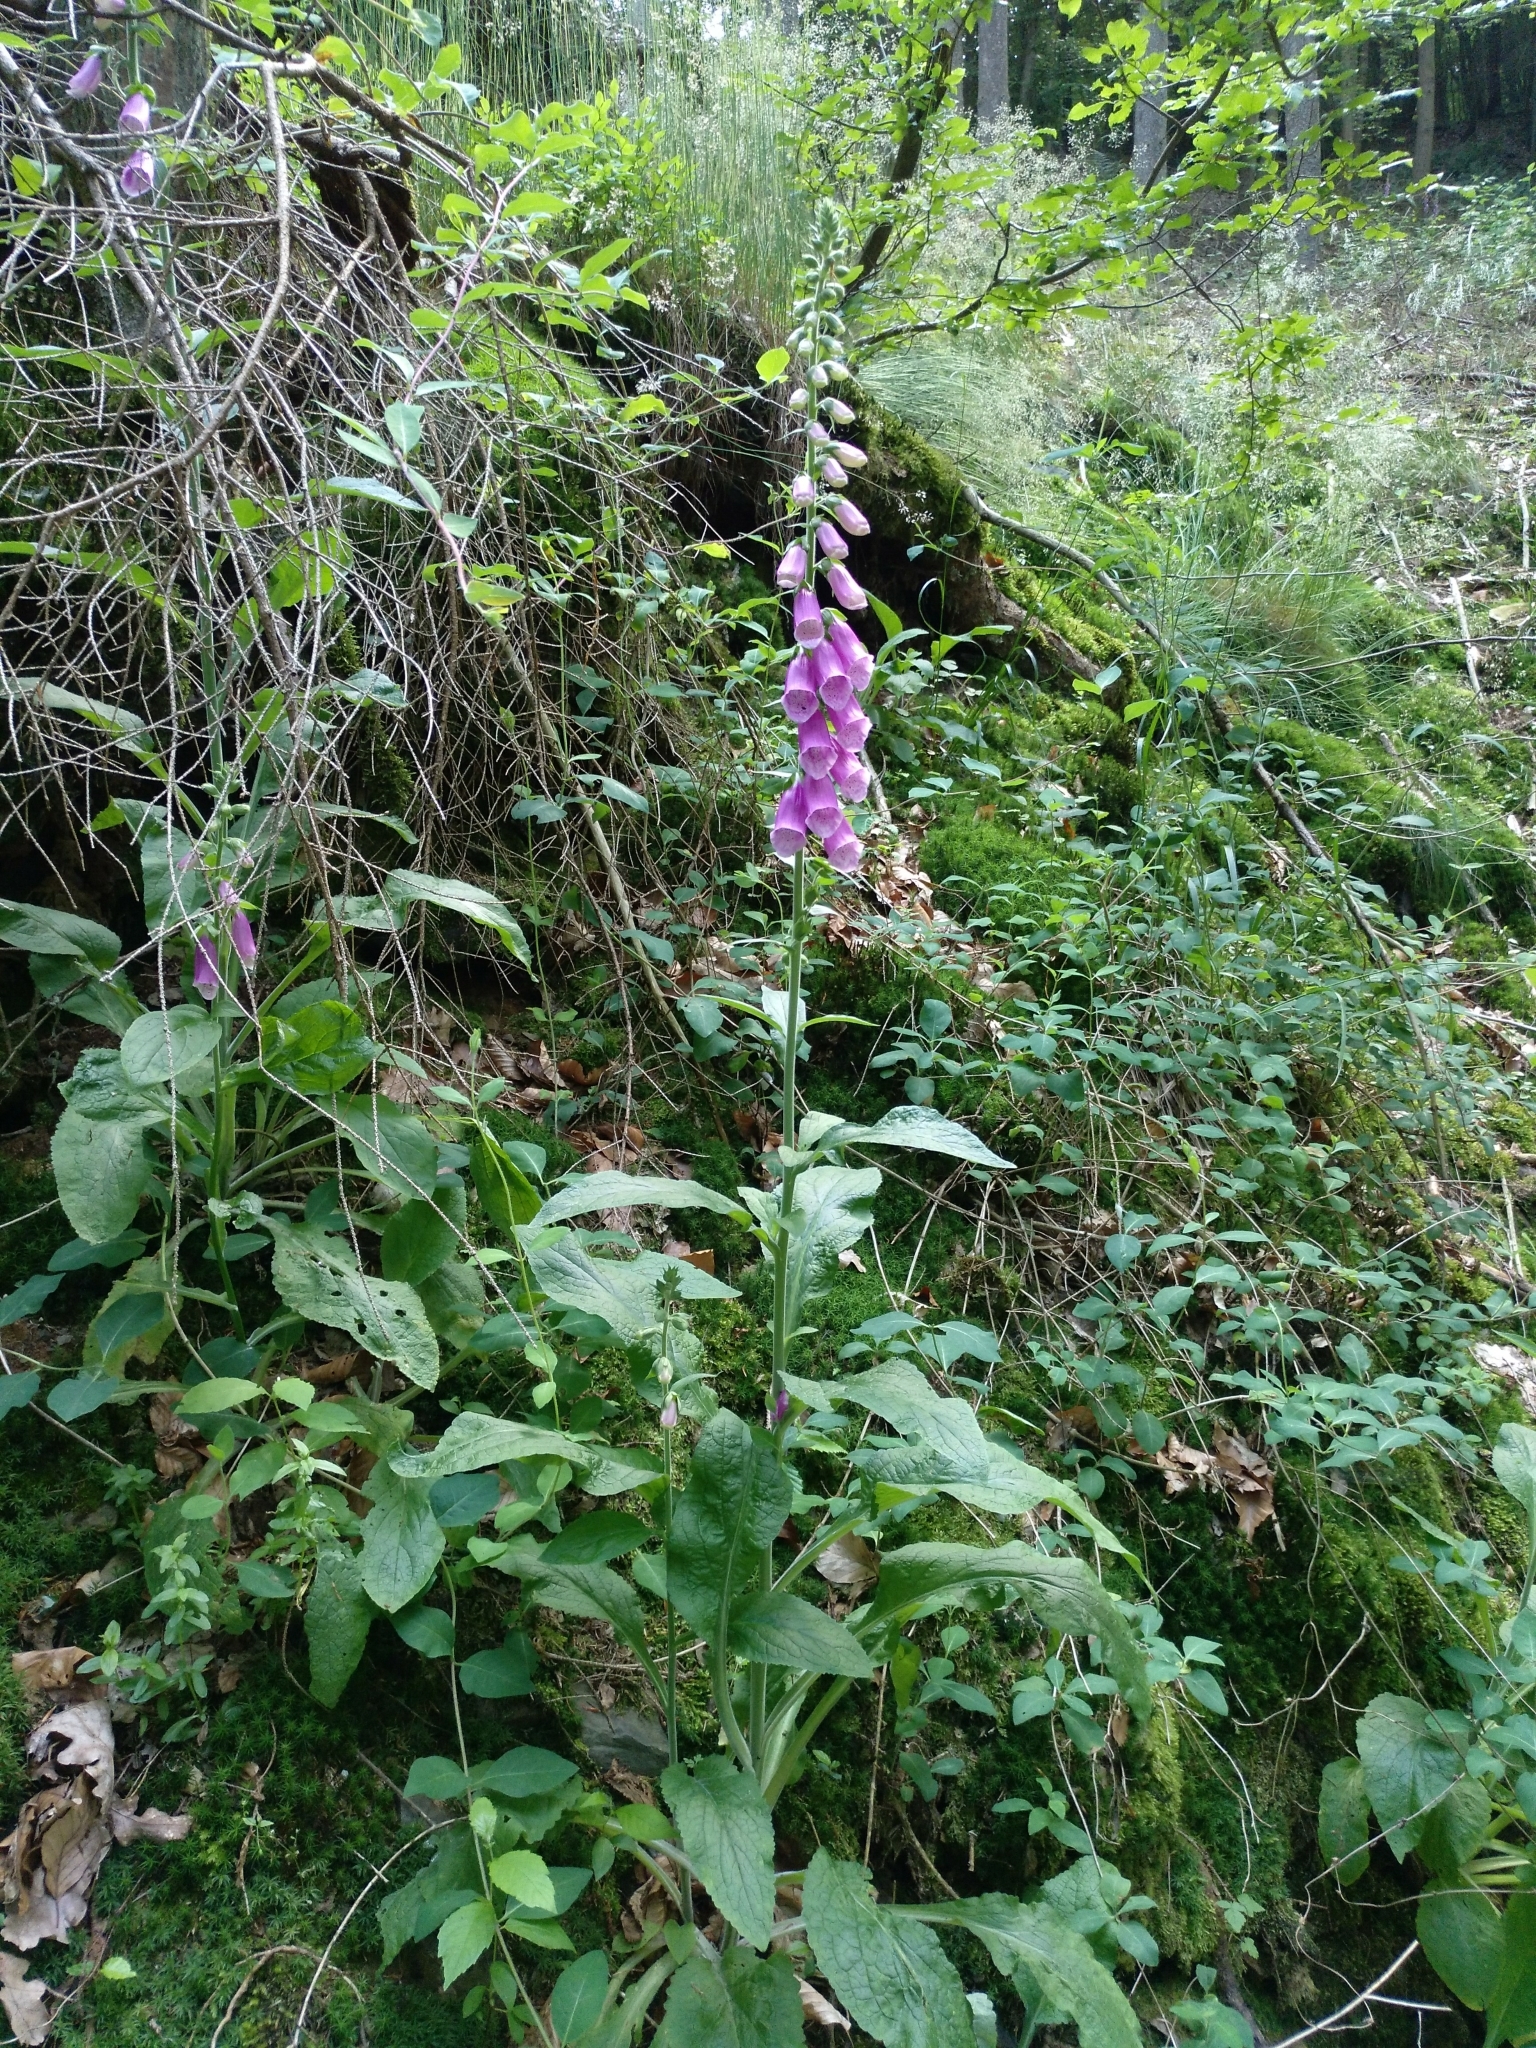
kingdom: Plantae
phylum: Tracheophyta
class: Magnoliopsida
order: Lamiales
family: Plantaginaceae
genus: Digitalis
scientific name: Digitalis purpurea
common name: Foxglove
